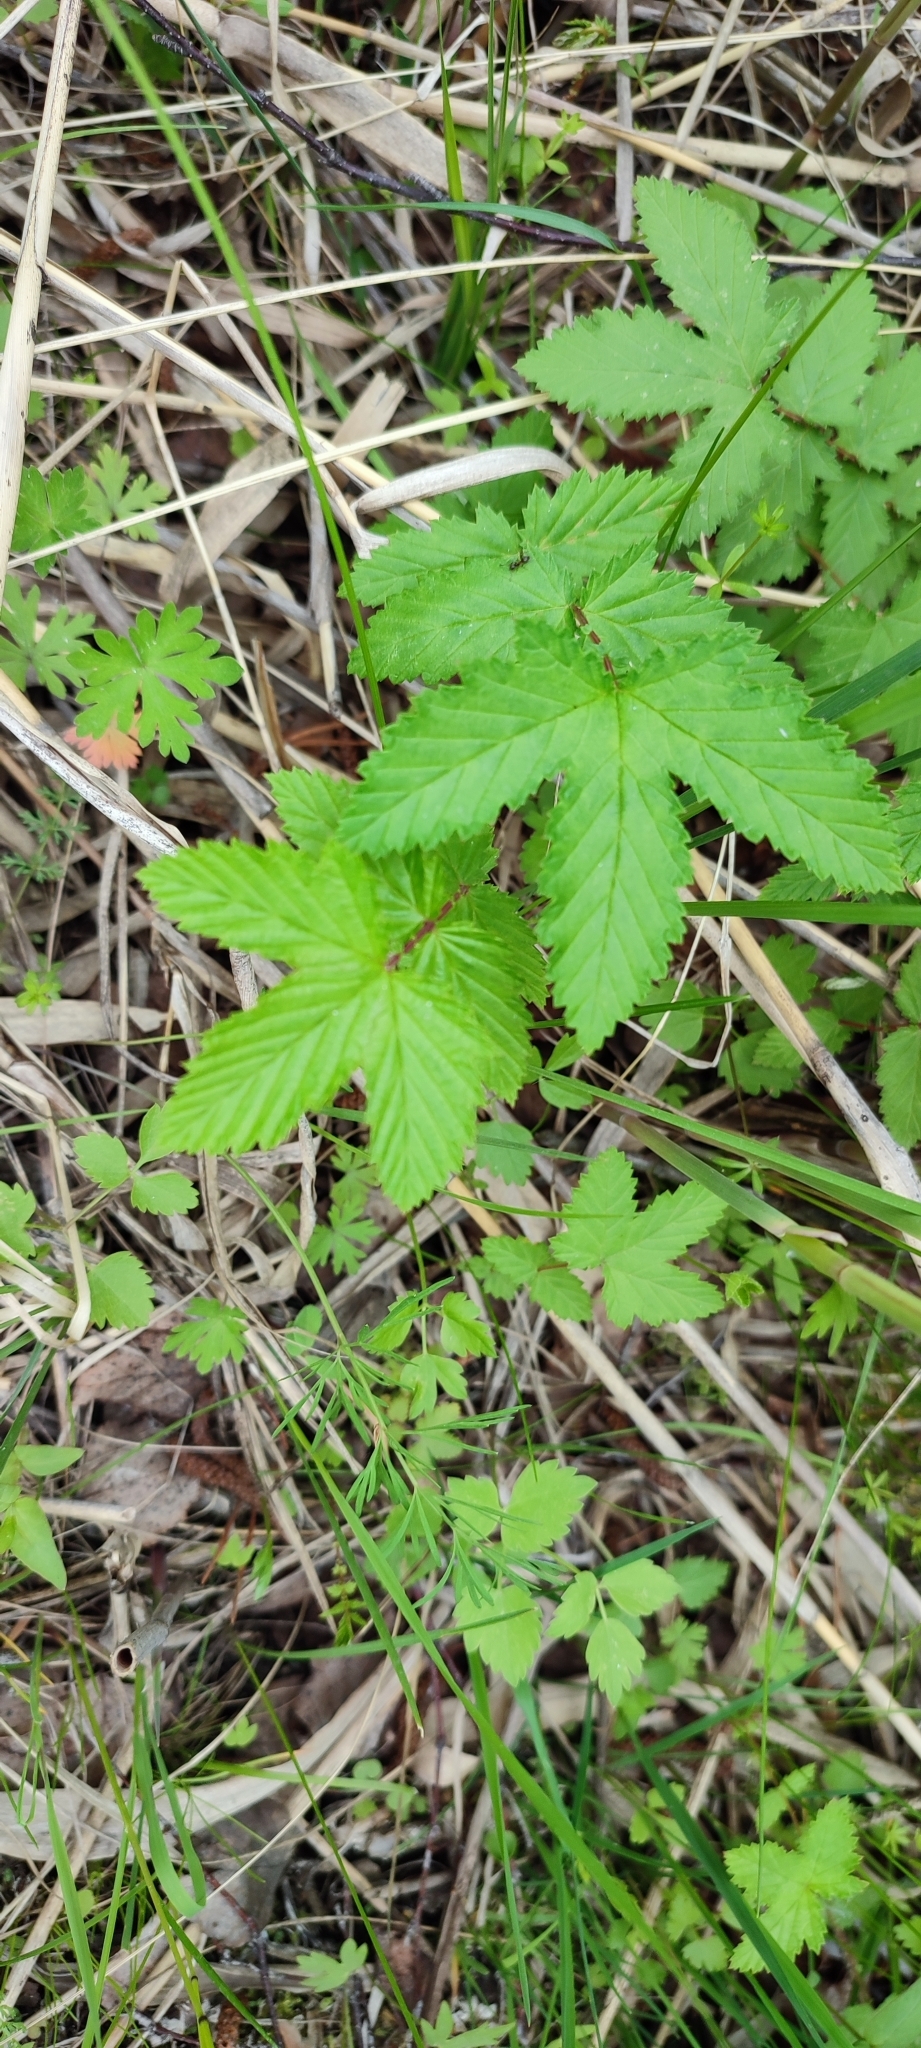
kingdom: Plantae
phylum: Tracheophyta
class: Magnoliopsida
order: Rosales
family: Rosaceae
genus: Filipendula
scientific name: Filipendula ulmaria
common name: Meadowsweet
